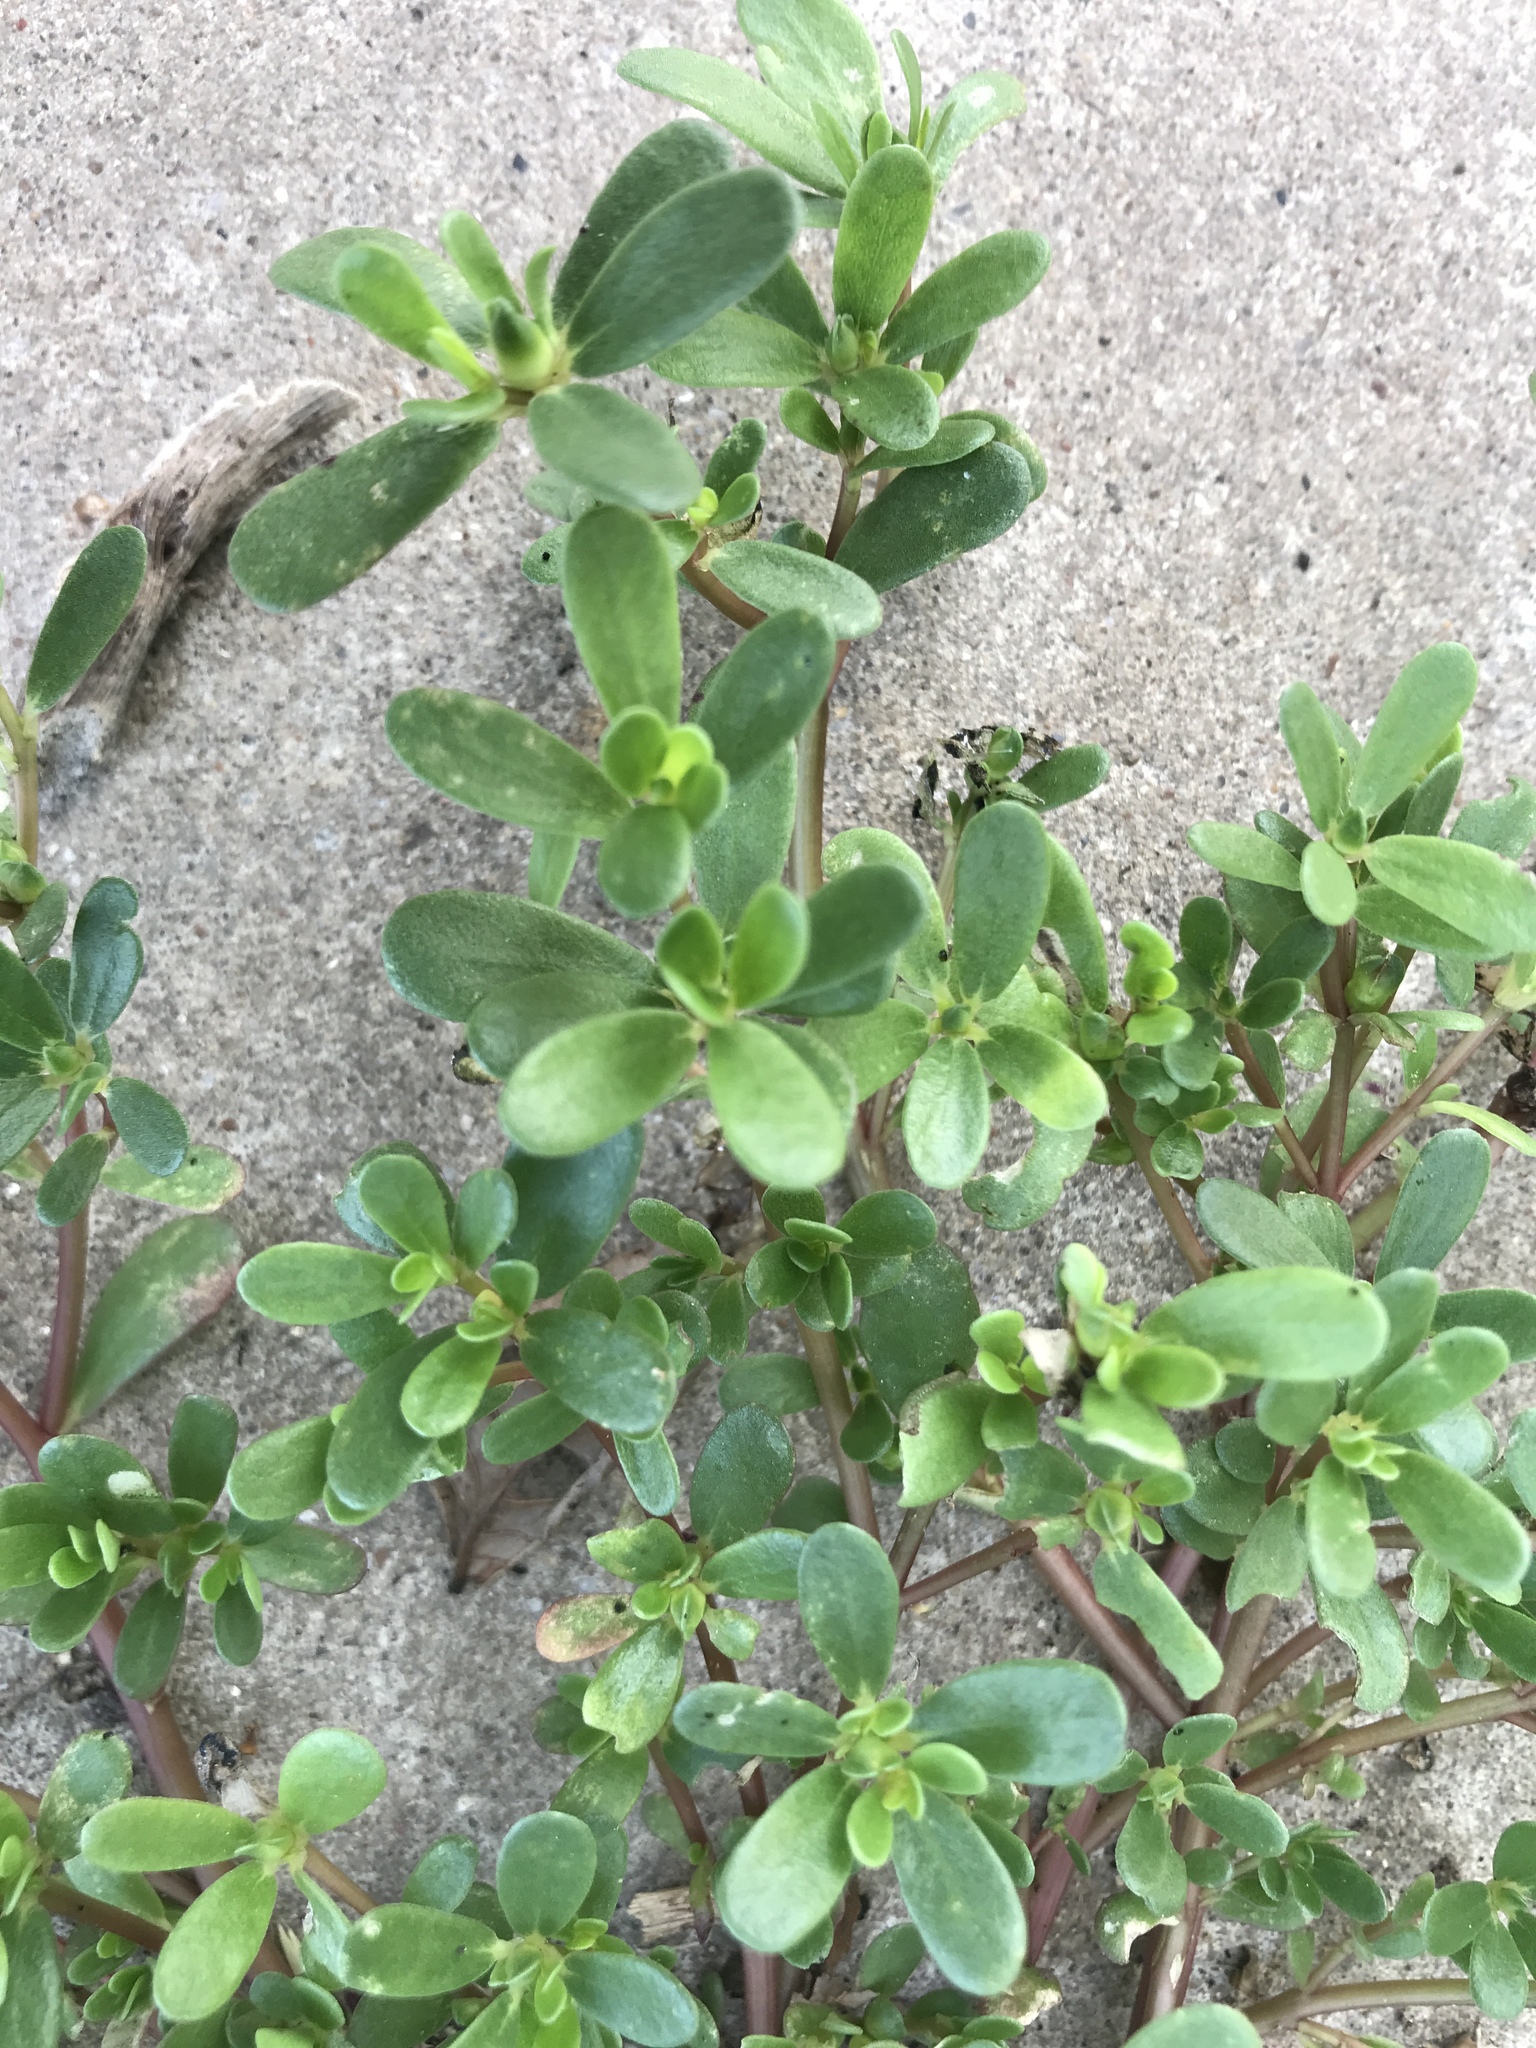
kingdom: Plantae
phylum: Tracheophyta
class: Magnoliopsida
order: Caryophyllales
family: Portulacaceae
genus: Portulaca
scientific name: Portulaca oleracea
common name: Common purslane
